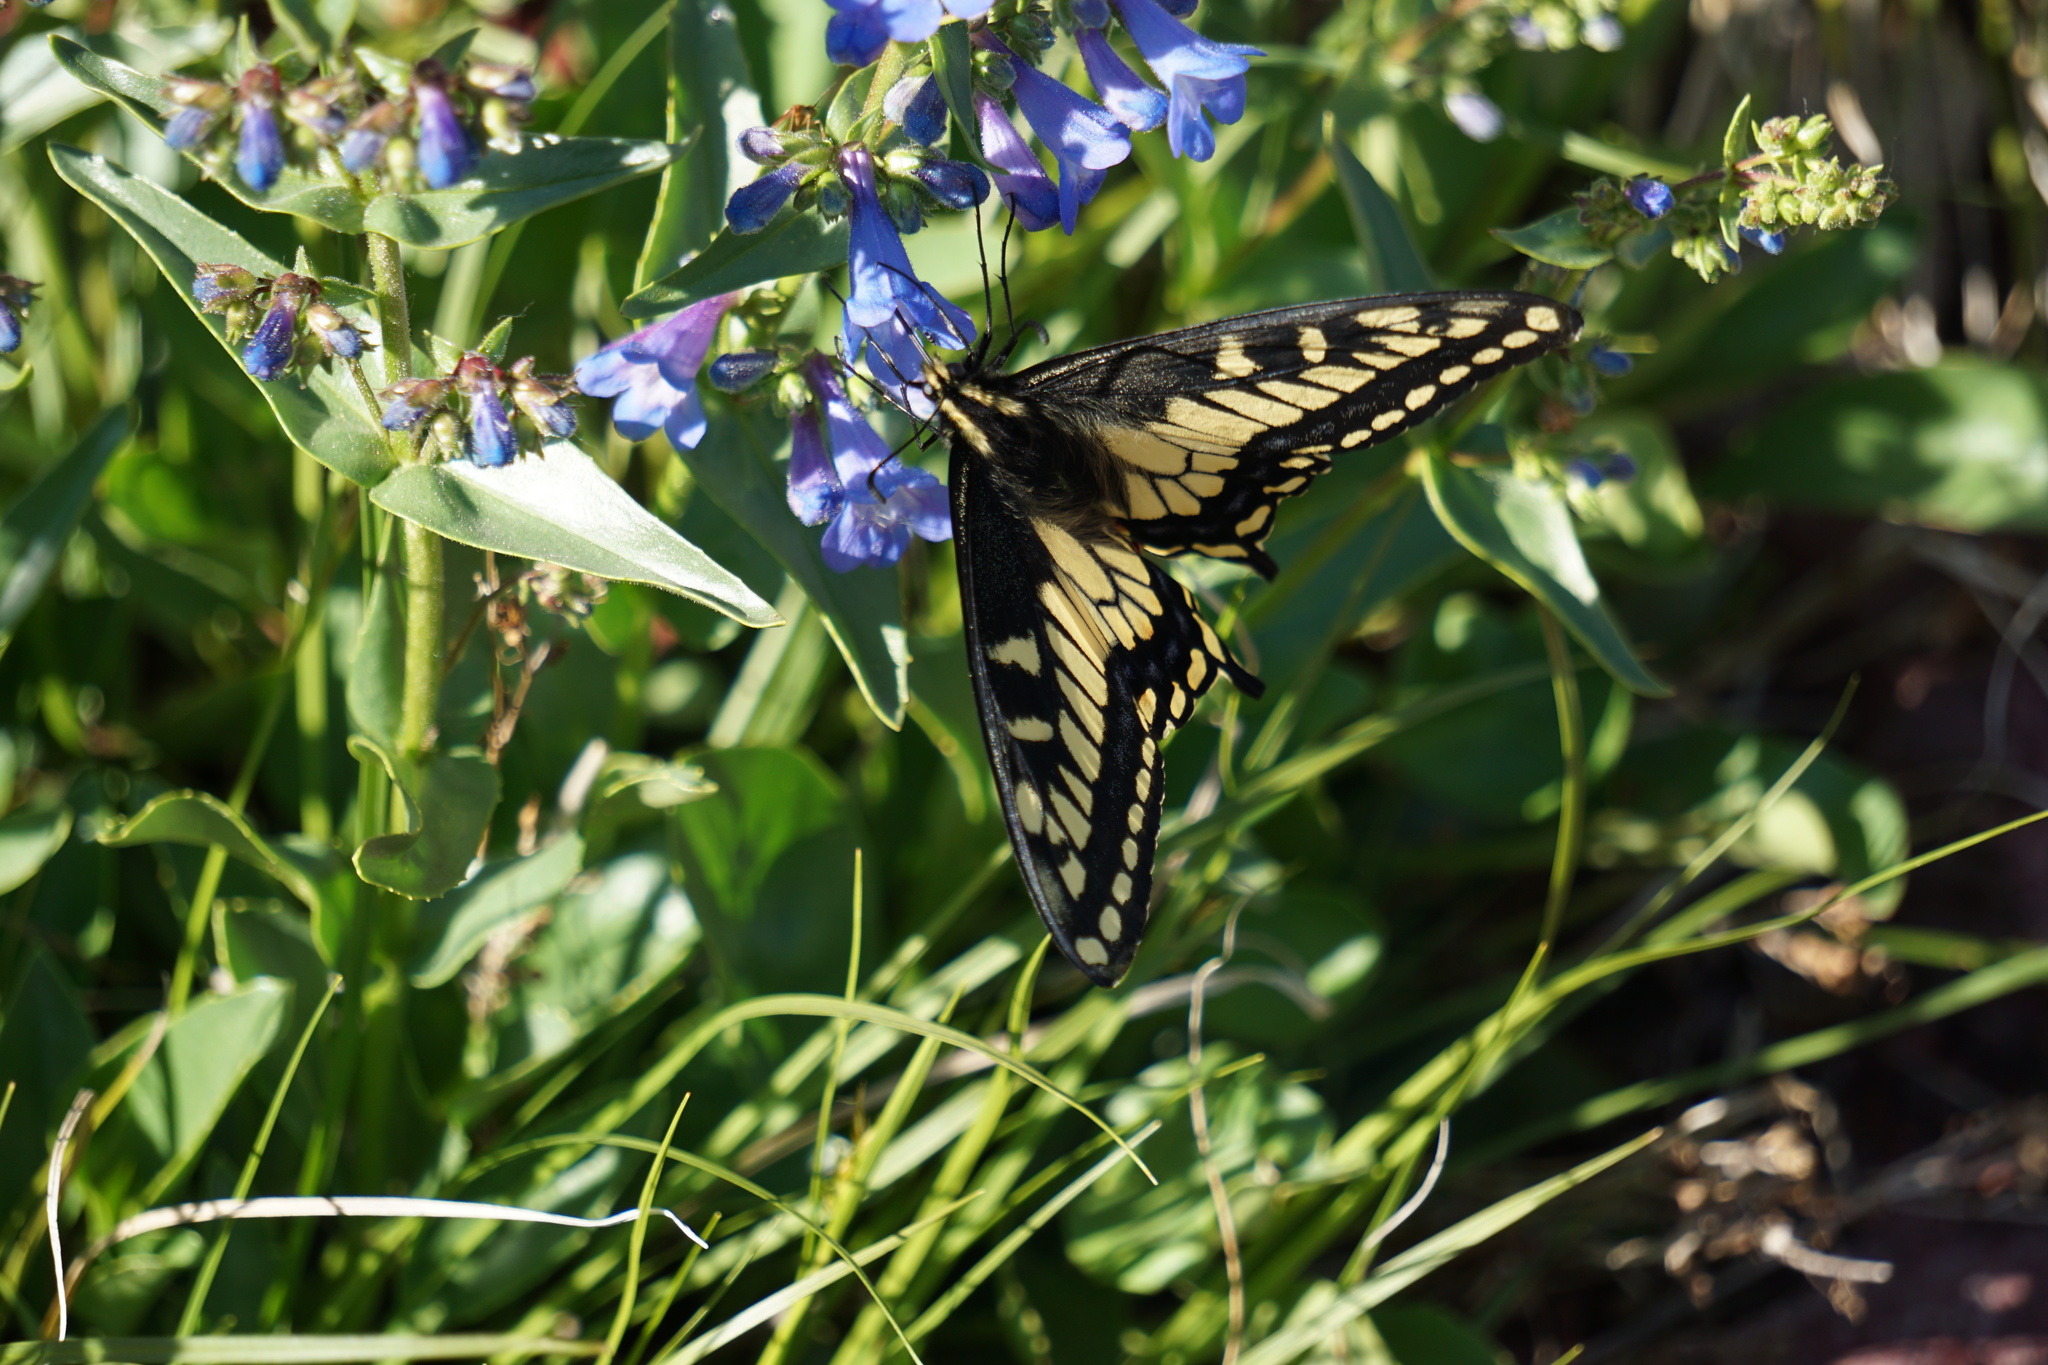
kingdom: Animalia
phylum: Arthropoda
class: Insecta
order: Lepidoptera
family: Papilionidae
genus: Papilio
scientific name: Papilio zelicaon
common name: Anise swallowtail
